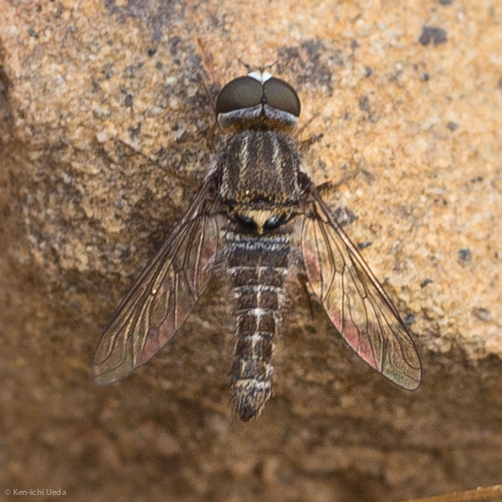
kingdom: Animalia
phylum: Arthropoda
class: Insecta
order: Diptera
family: Bombyliidae
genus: Aphoebantus
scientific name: Aphoebantus conurus
